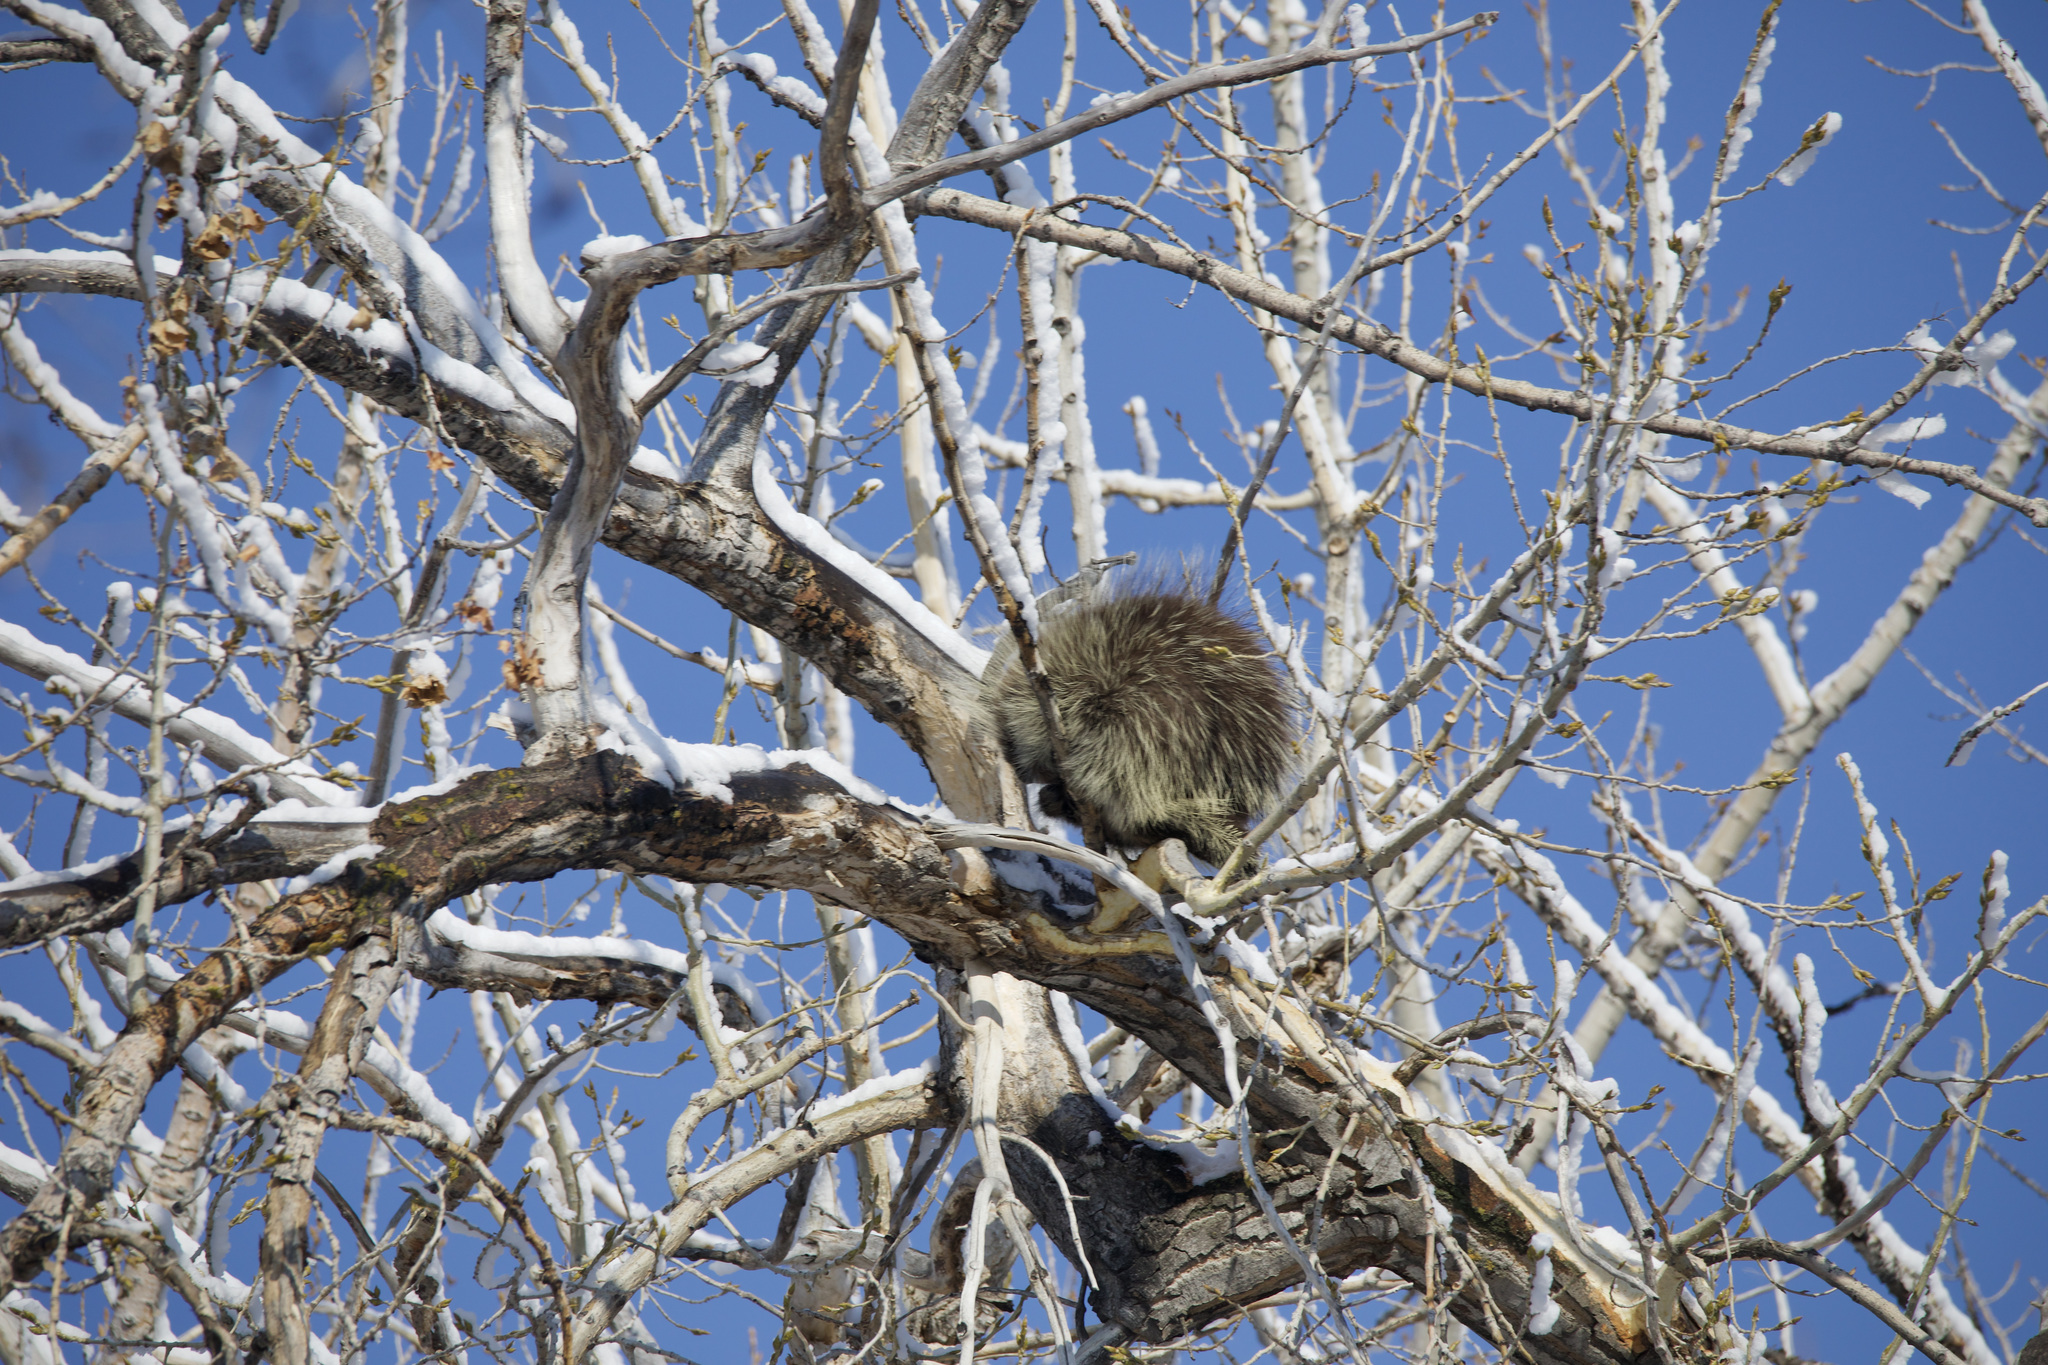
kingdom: Animalia
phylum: Chordata
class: Mammalia
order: Rodentia
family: Erethizontidae
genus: Erethizon
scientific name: Erethizon dorsatus
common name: North american porcupine
